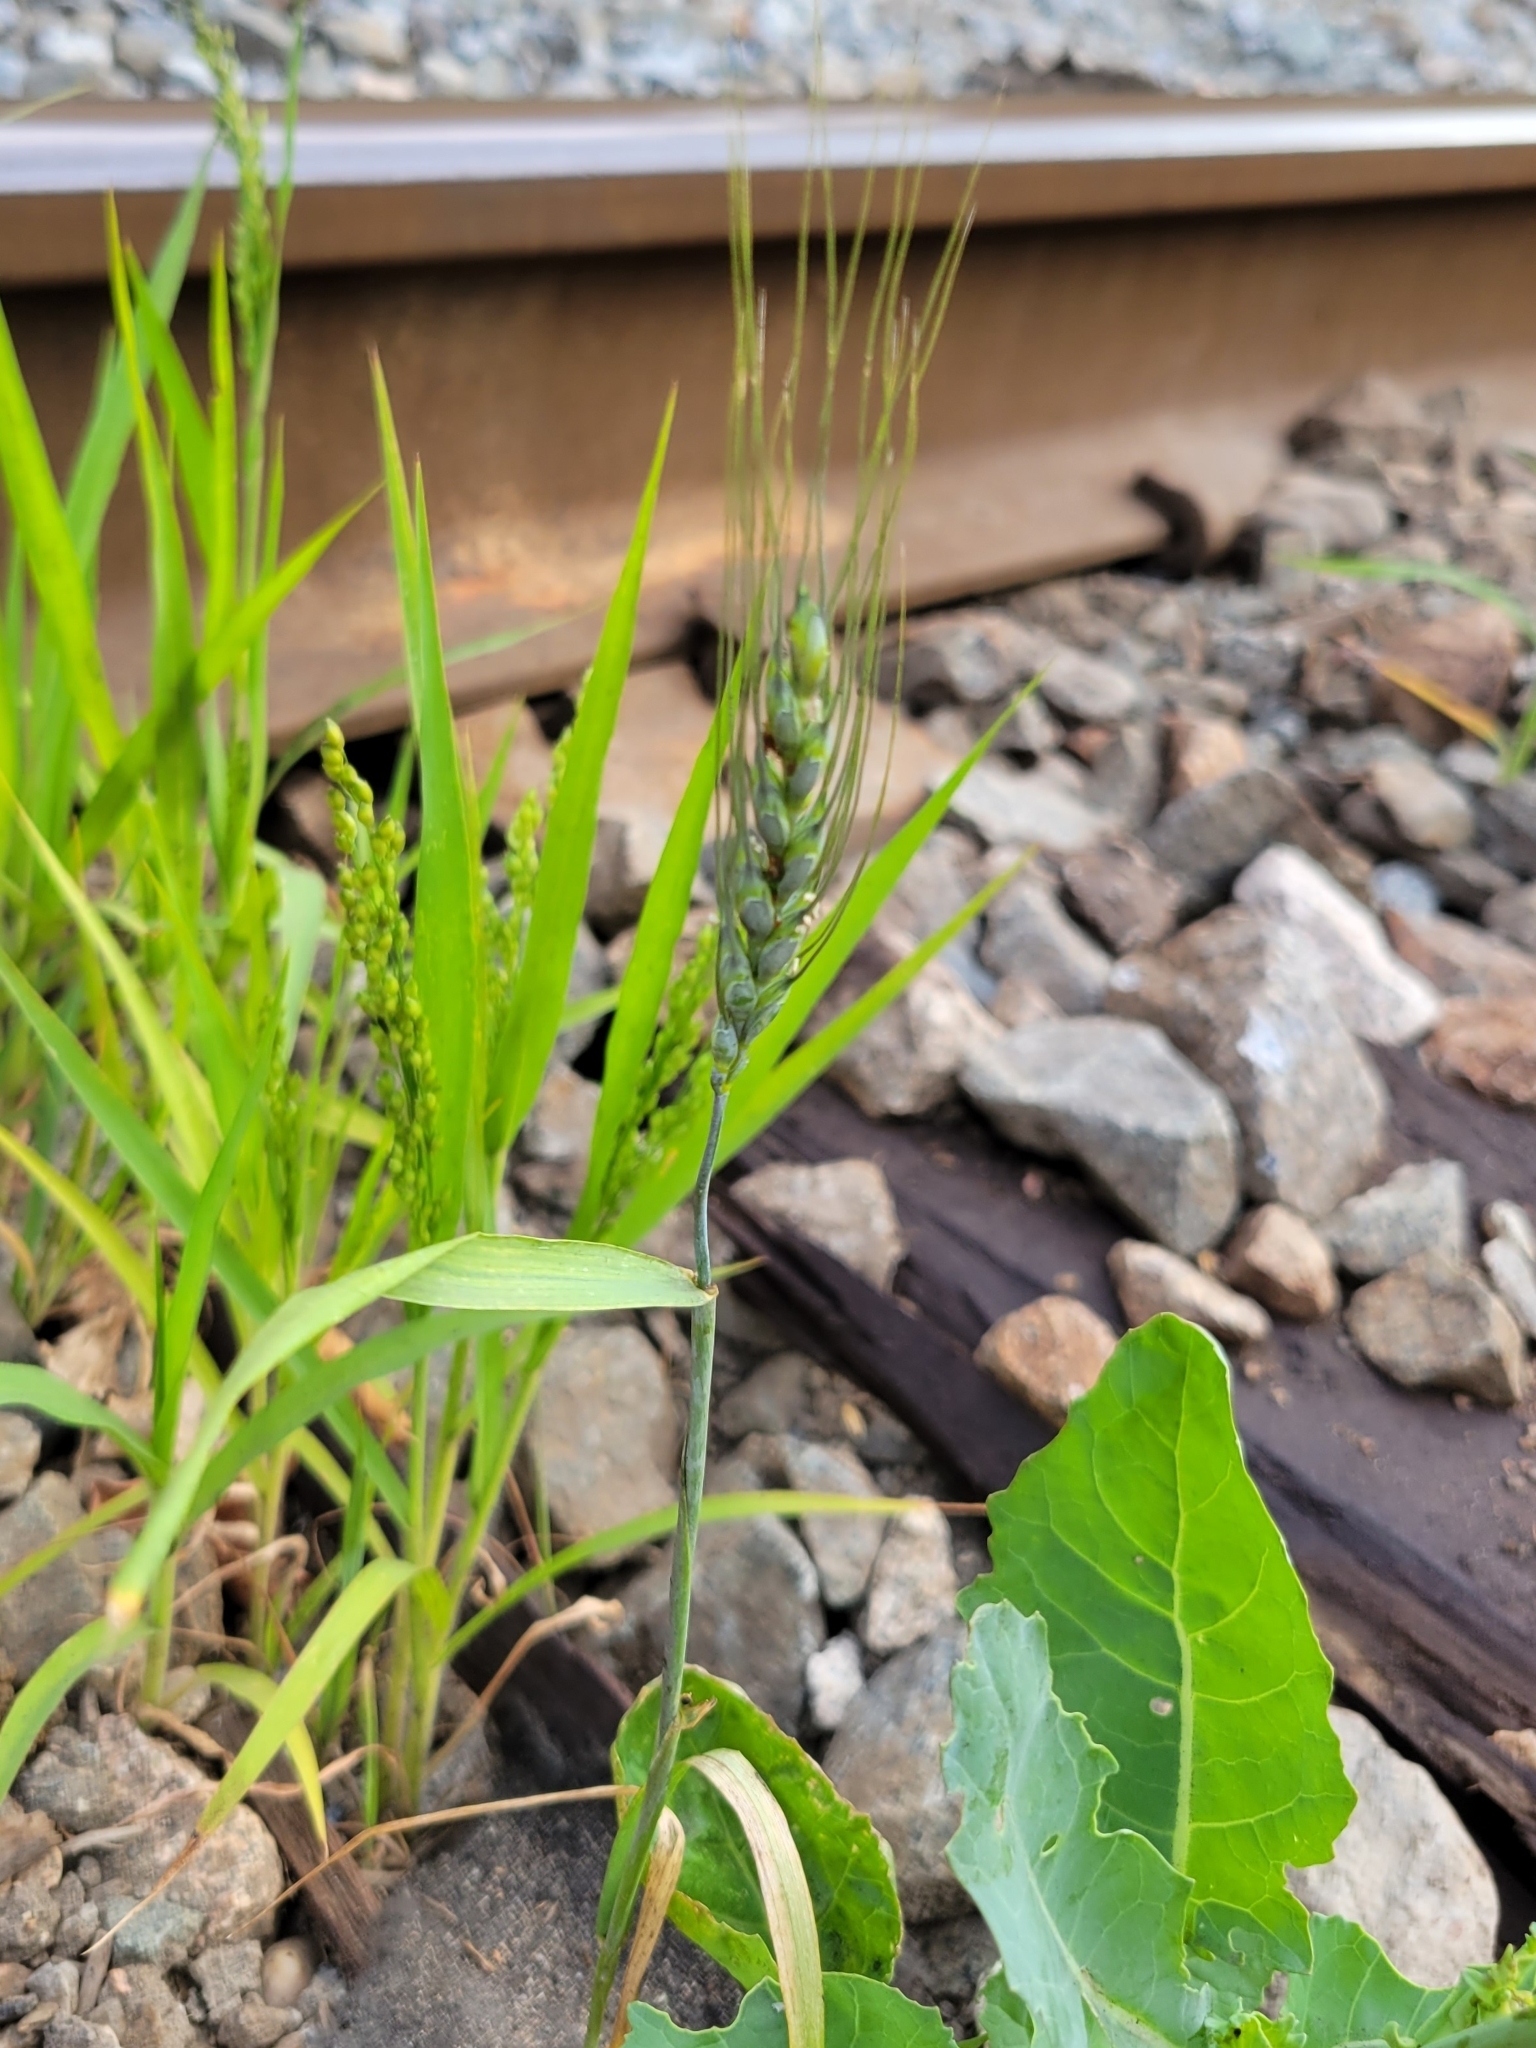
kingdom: Plantae
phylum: Tracheophyta
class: Liliopsida
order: Poales
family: Poaceae
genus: Triticum
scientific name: Triticum aestivum
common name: Common wheat
